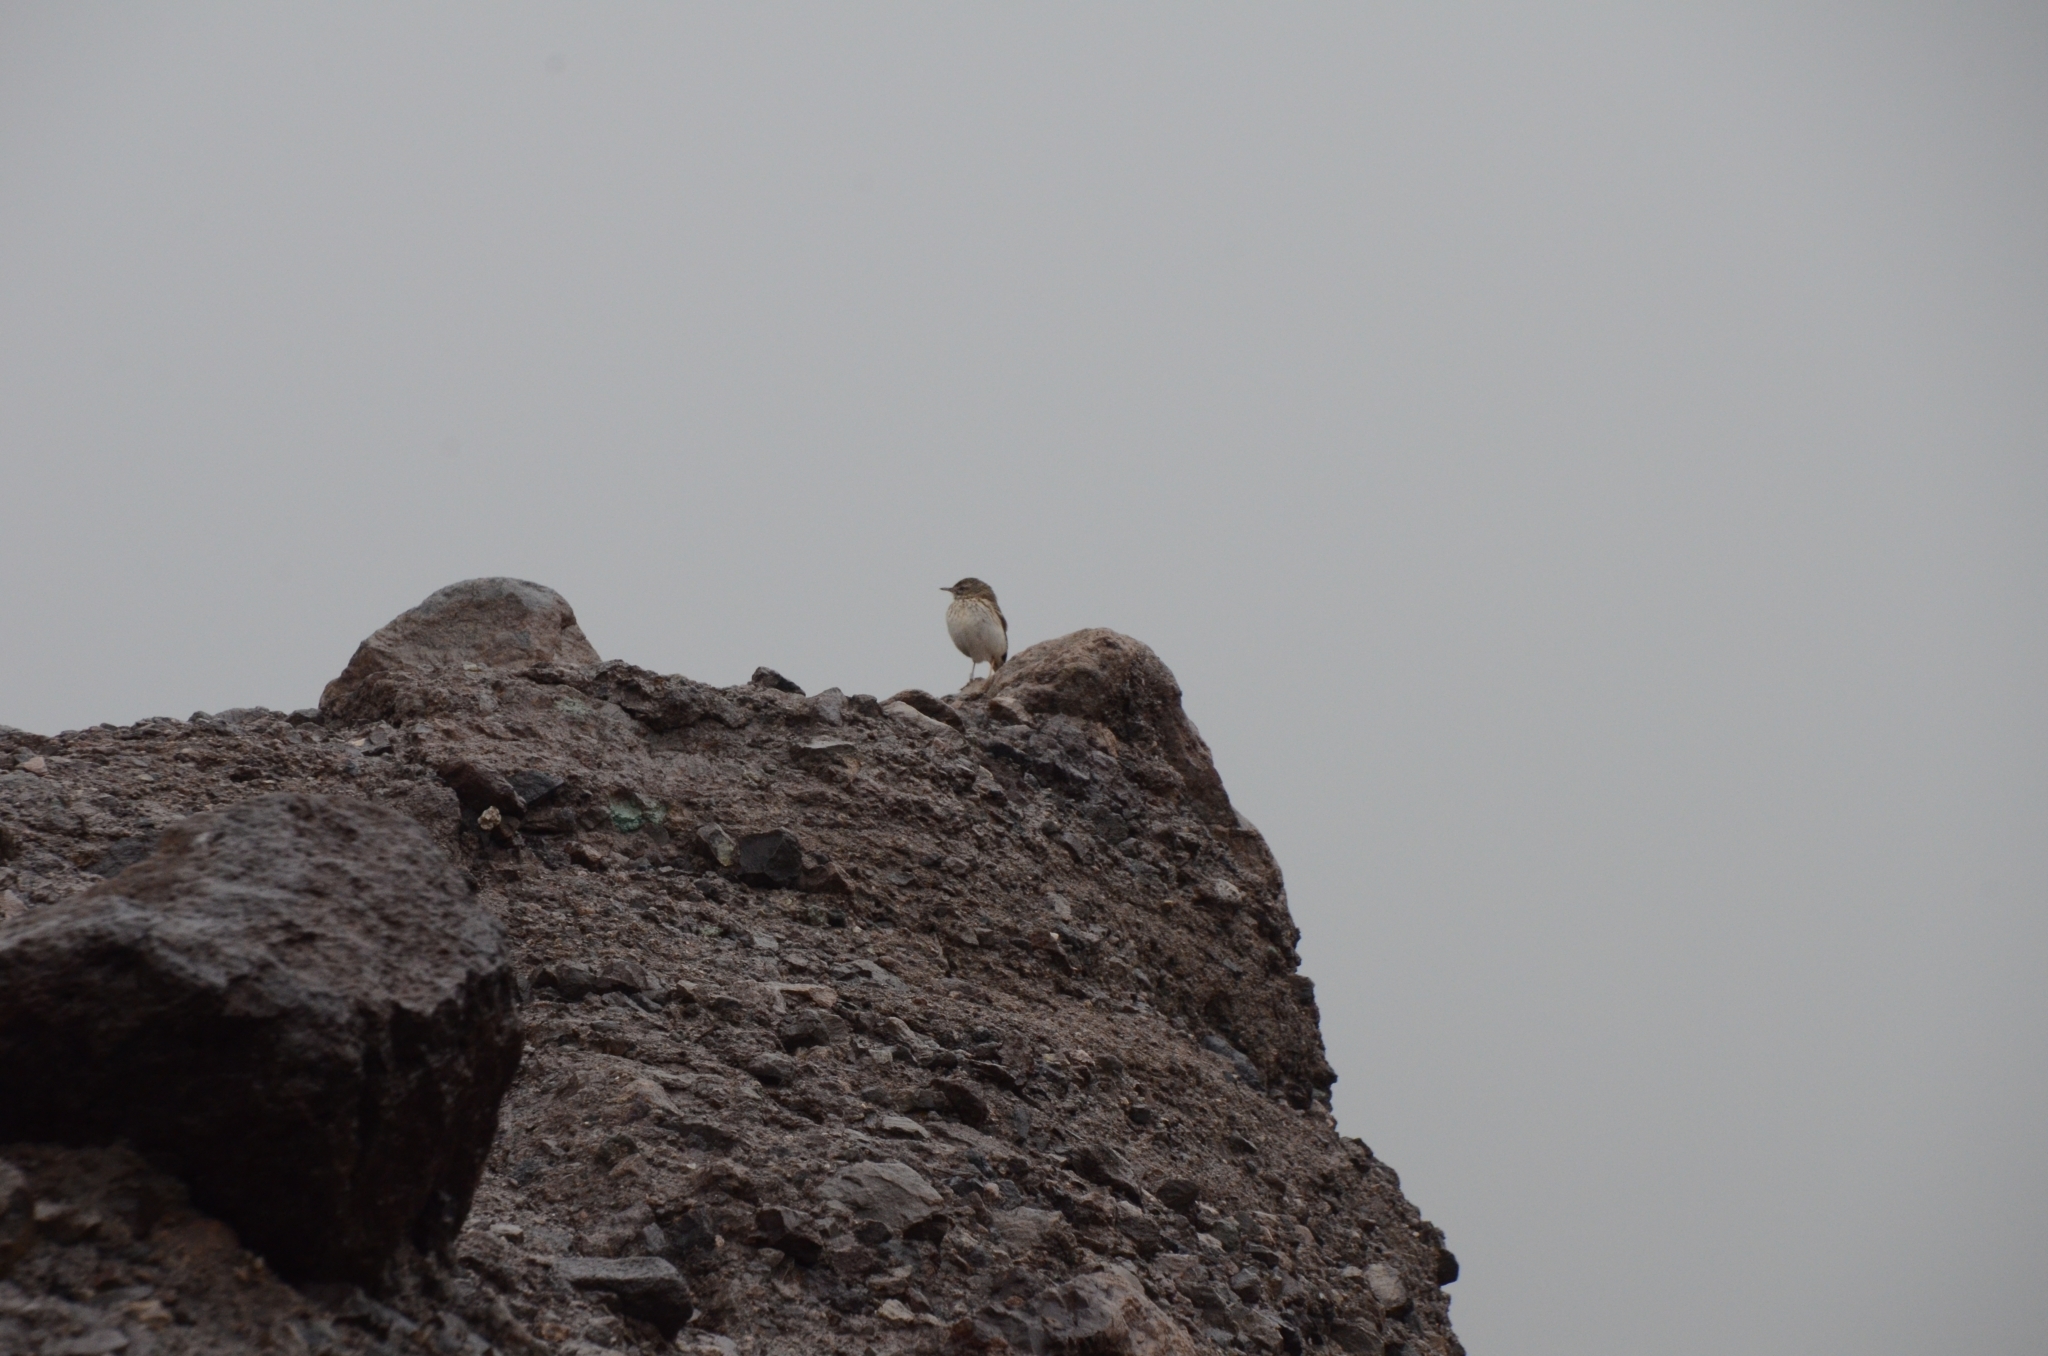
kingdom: Animalia
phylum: Chordata
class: Aves
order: Passeriformes
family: Motacillidae
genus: Anthus
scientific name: Anthus berthelotii
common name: Berthelot's pipit
